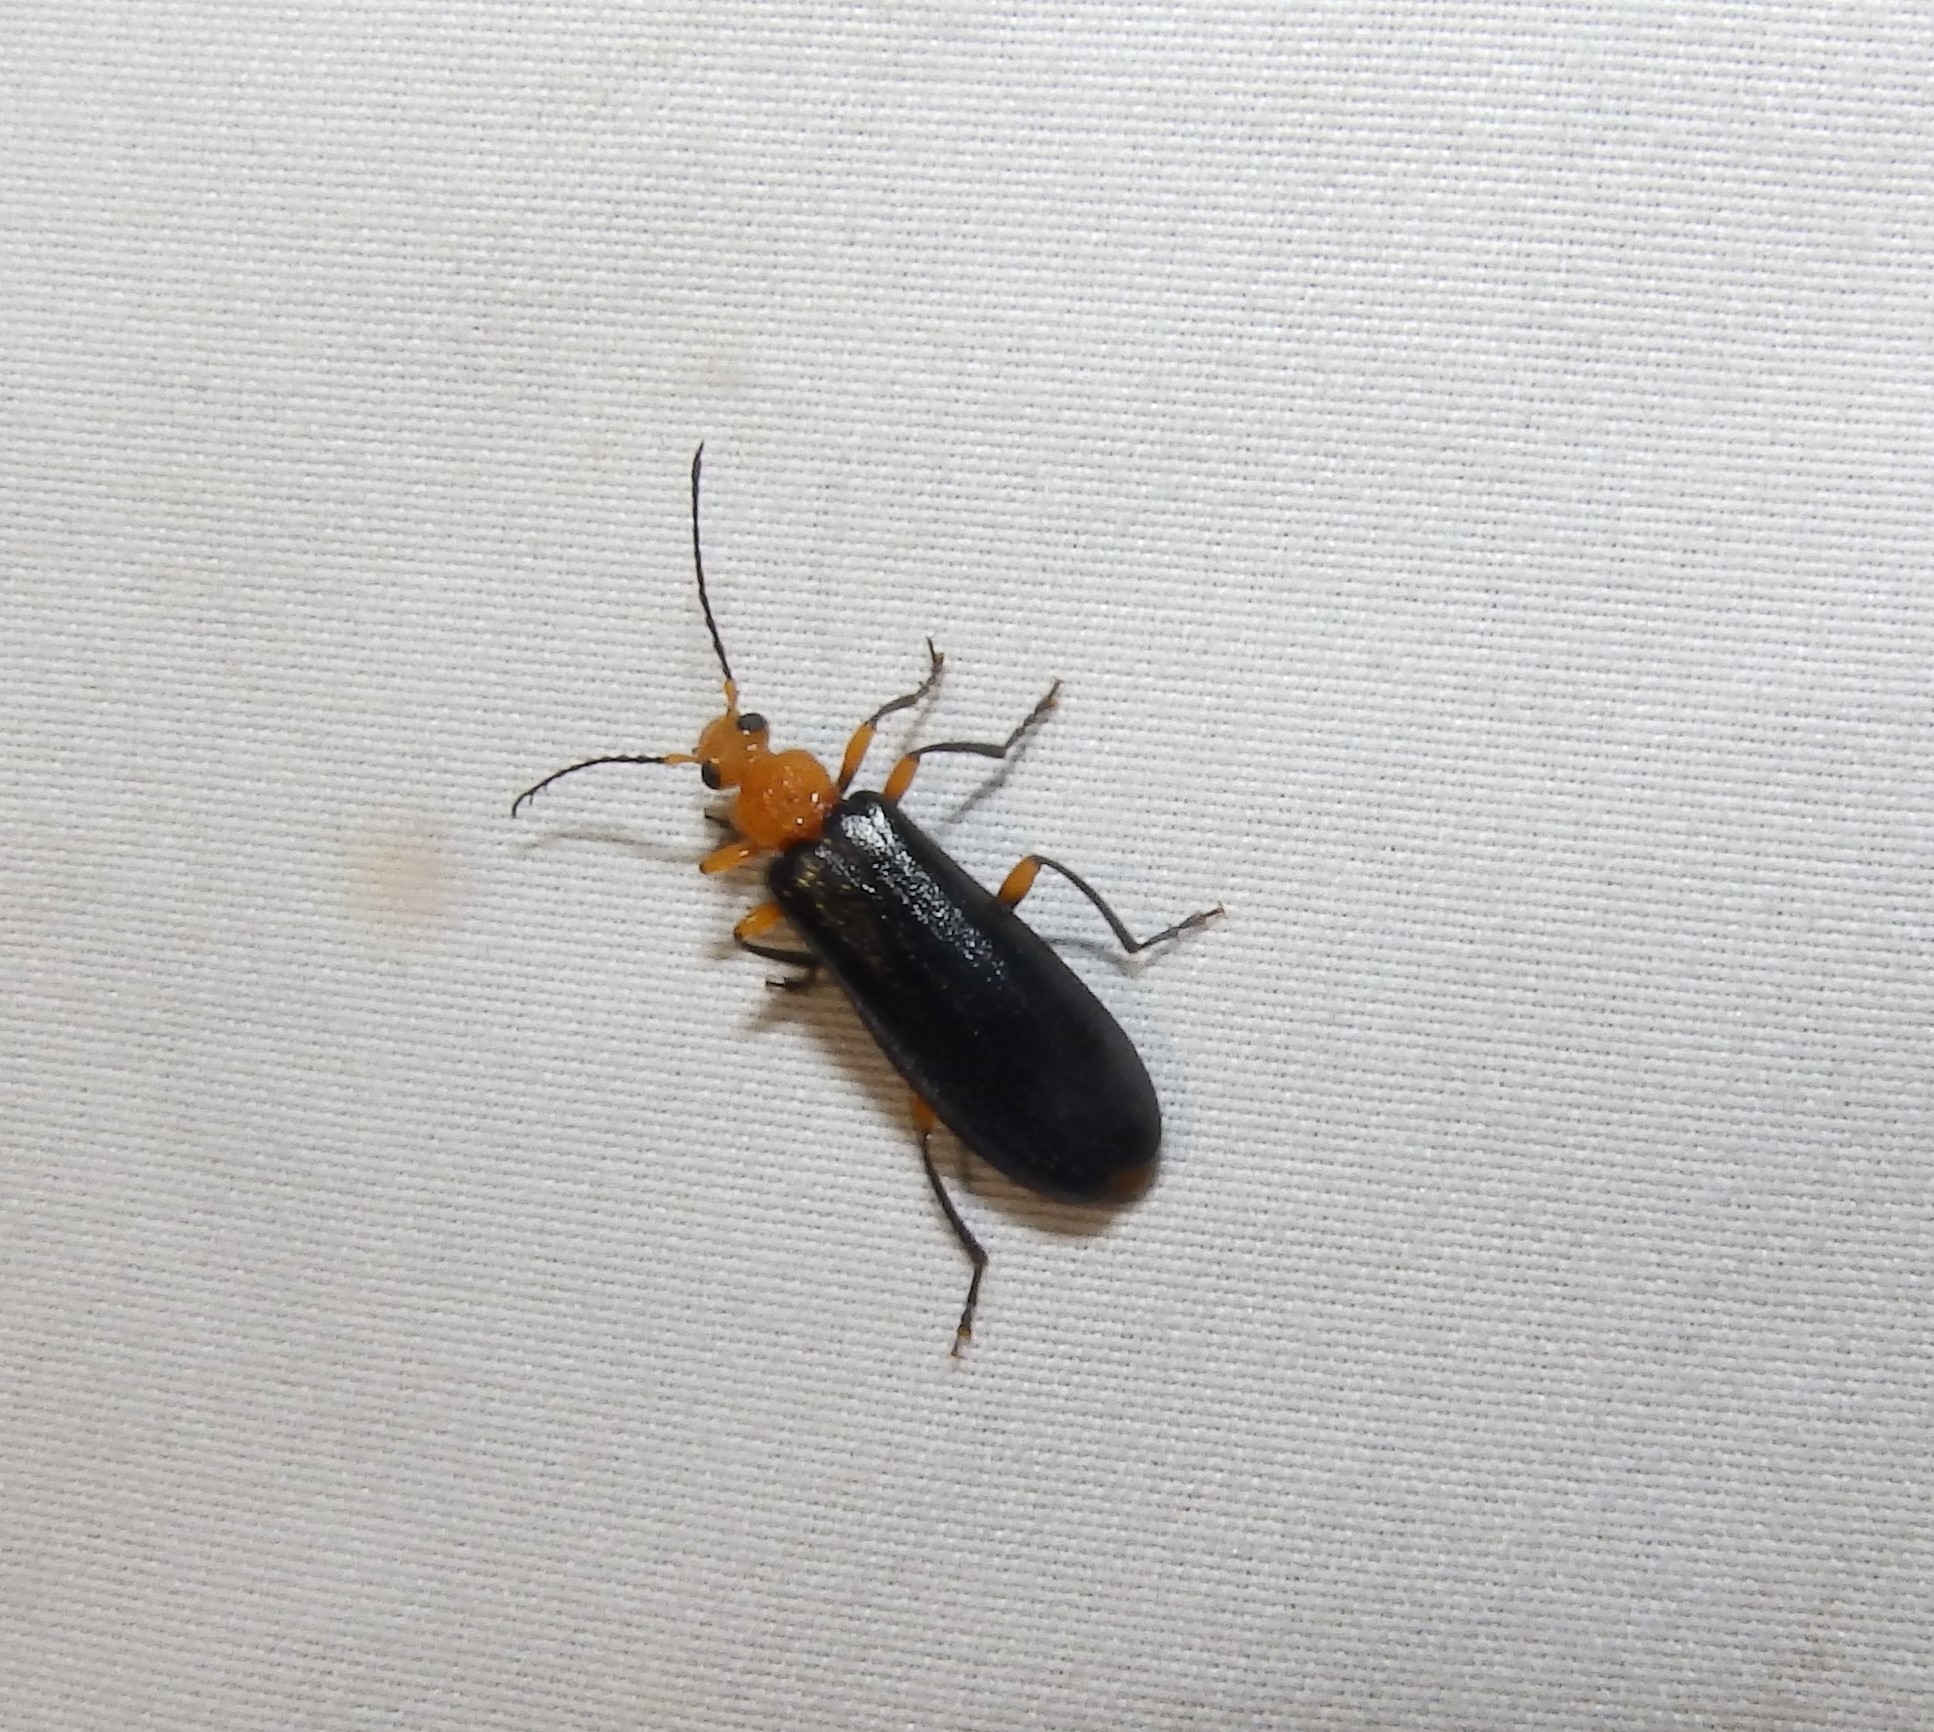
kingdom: Animalia
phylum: Arthropoda
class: Insecta
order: Coleoptera
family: Pyrochroidae
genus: Neopyrochroa
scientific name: Neopyrochroa femoralis
